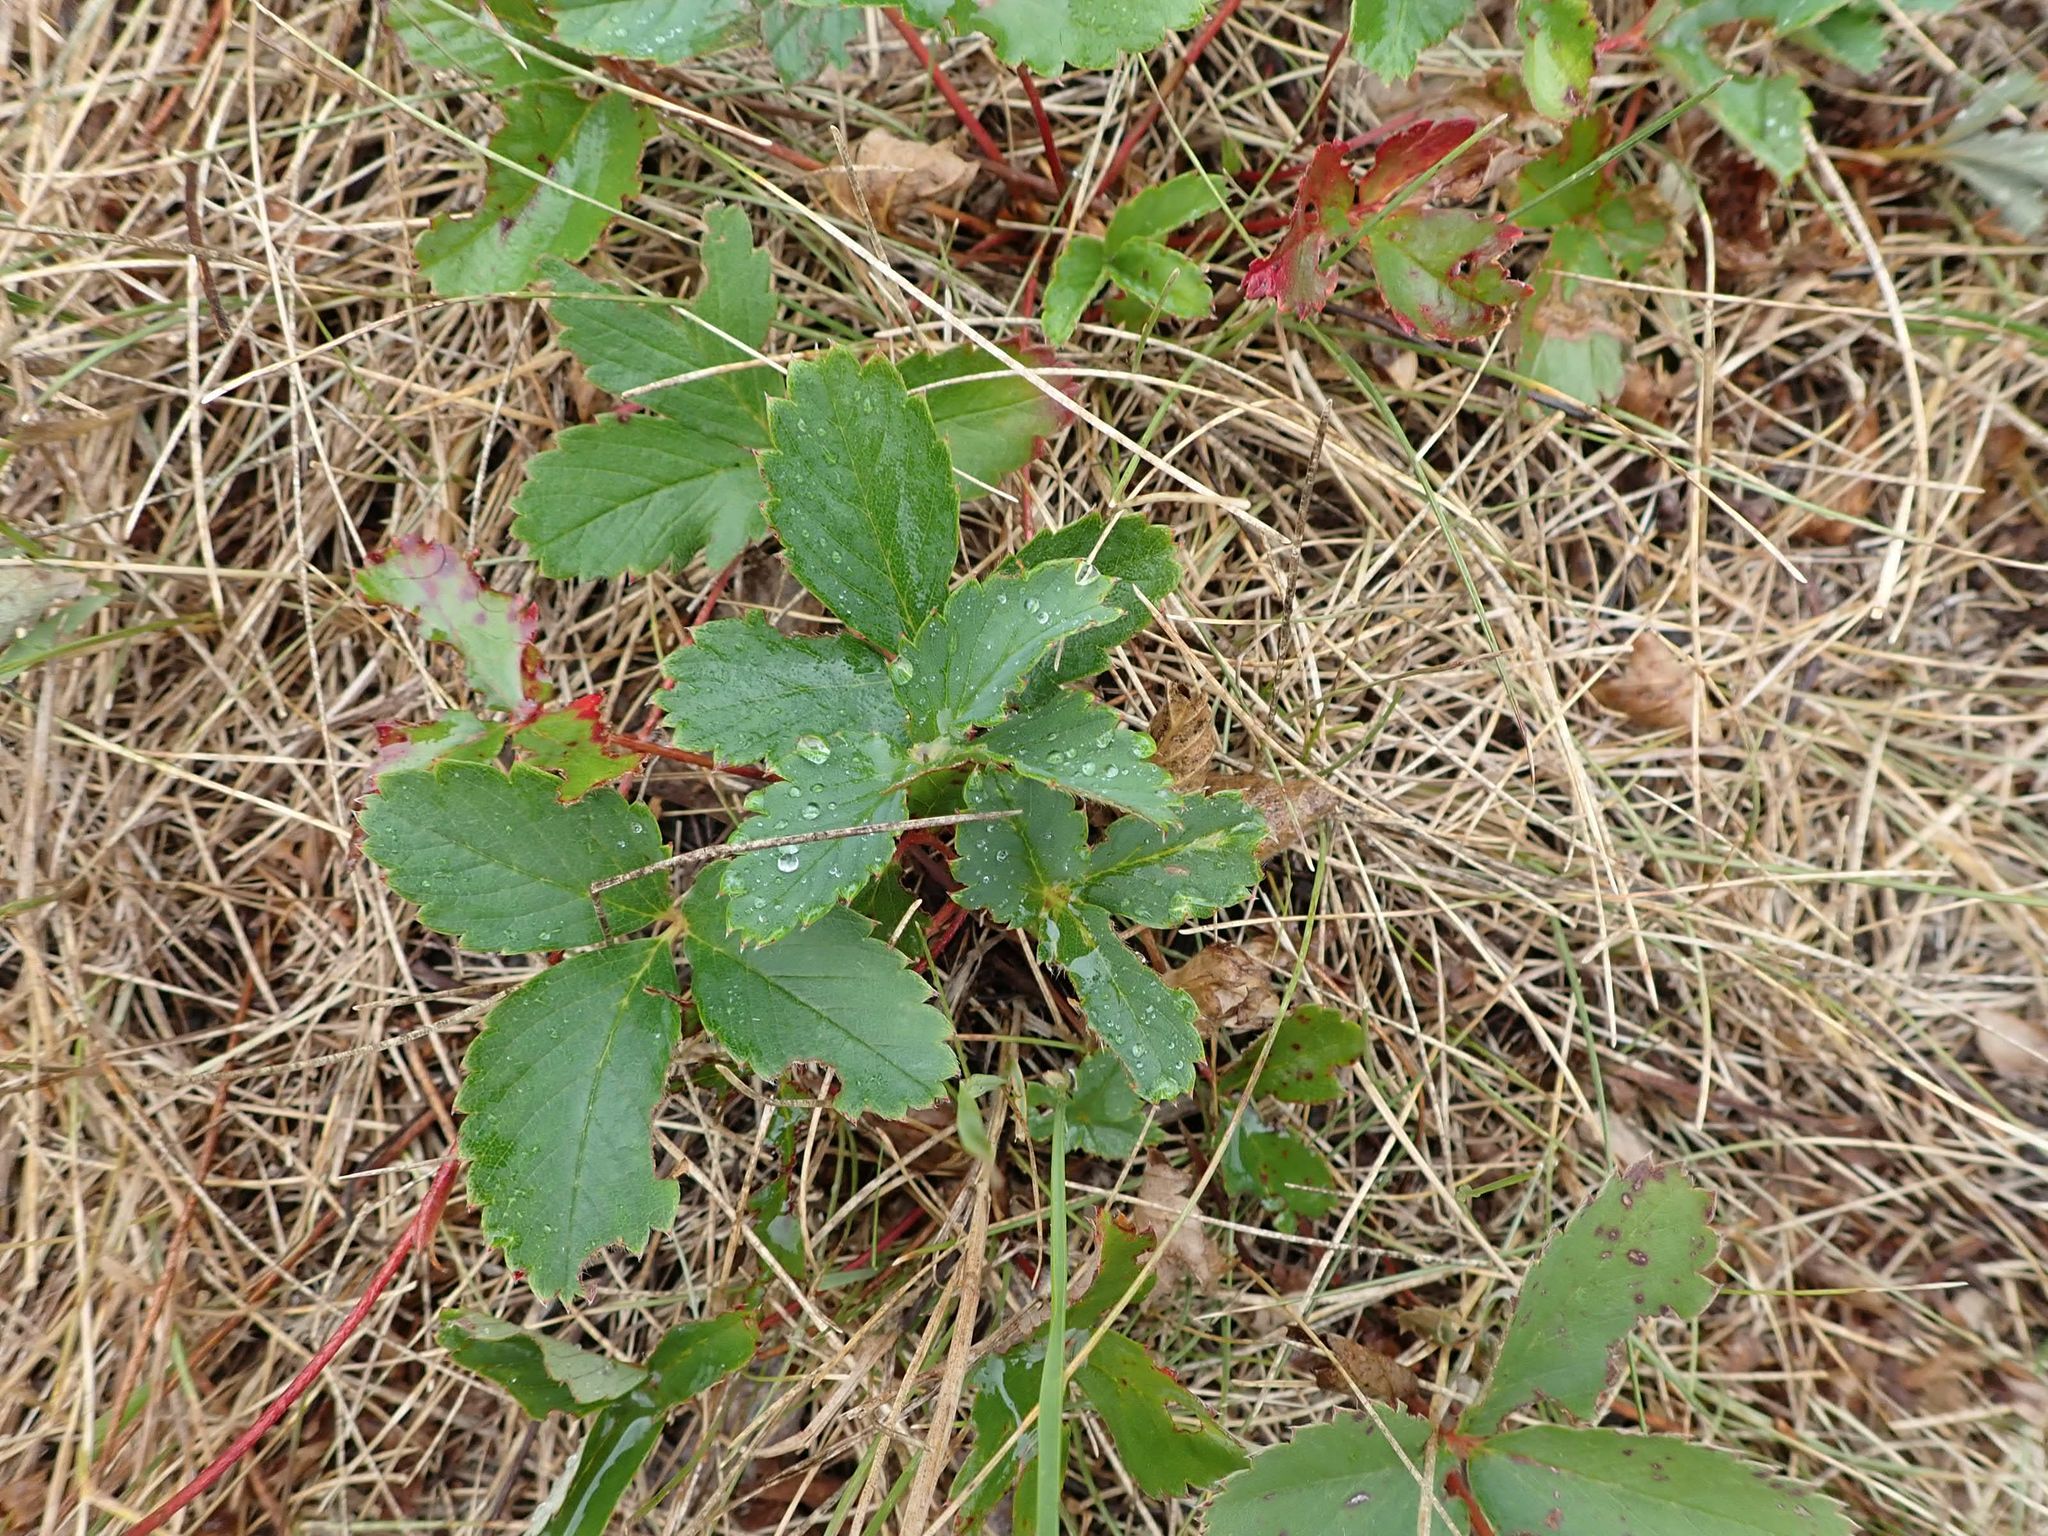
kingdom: Plantae
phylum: Tracheophyta
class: Magnoliopsida
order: Rosales
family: Rosaceae
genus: Fragaria
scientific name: Fragaria virginiana
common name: Thickleaved wild strawberry
